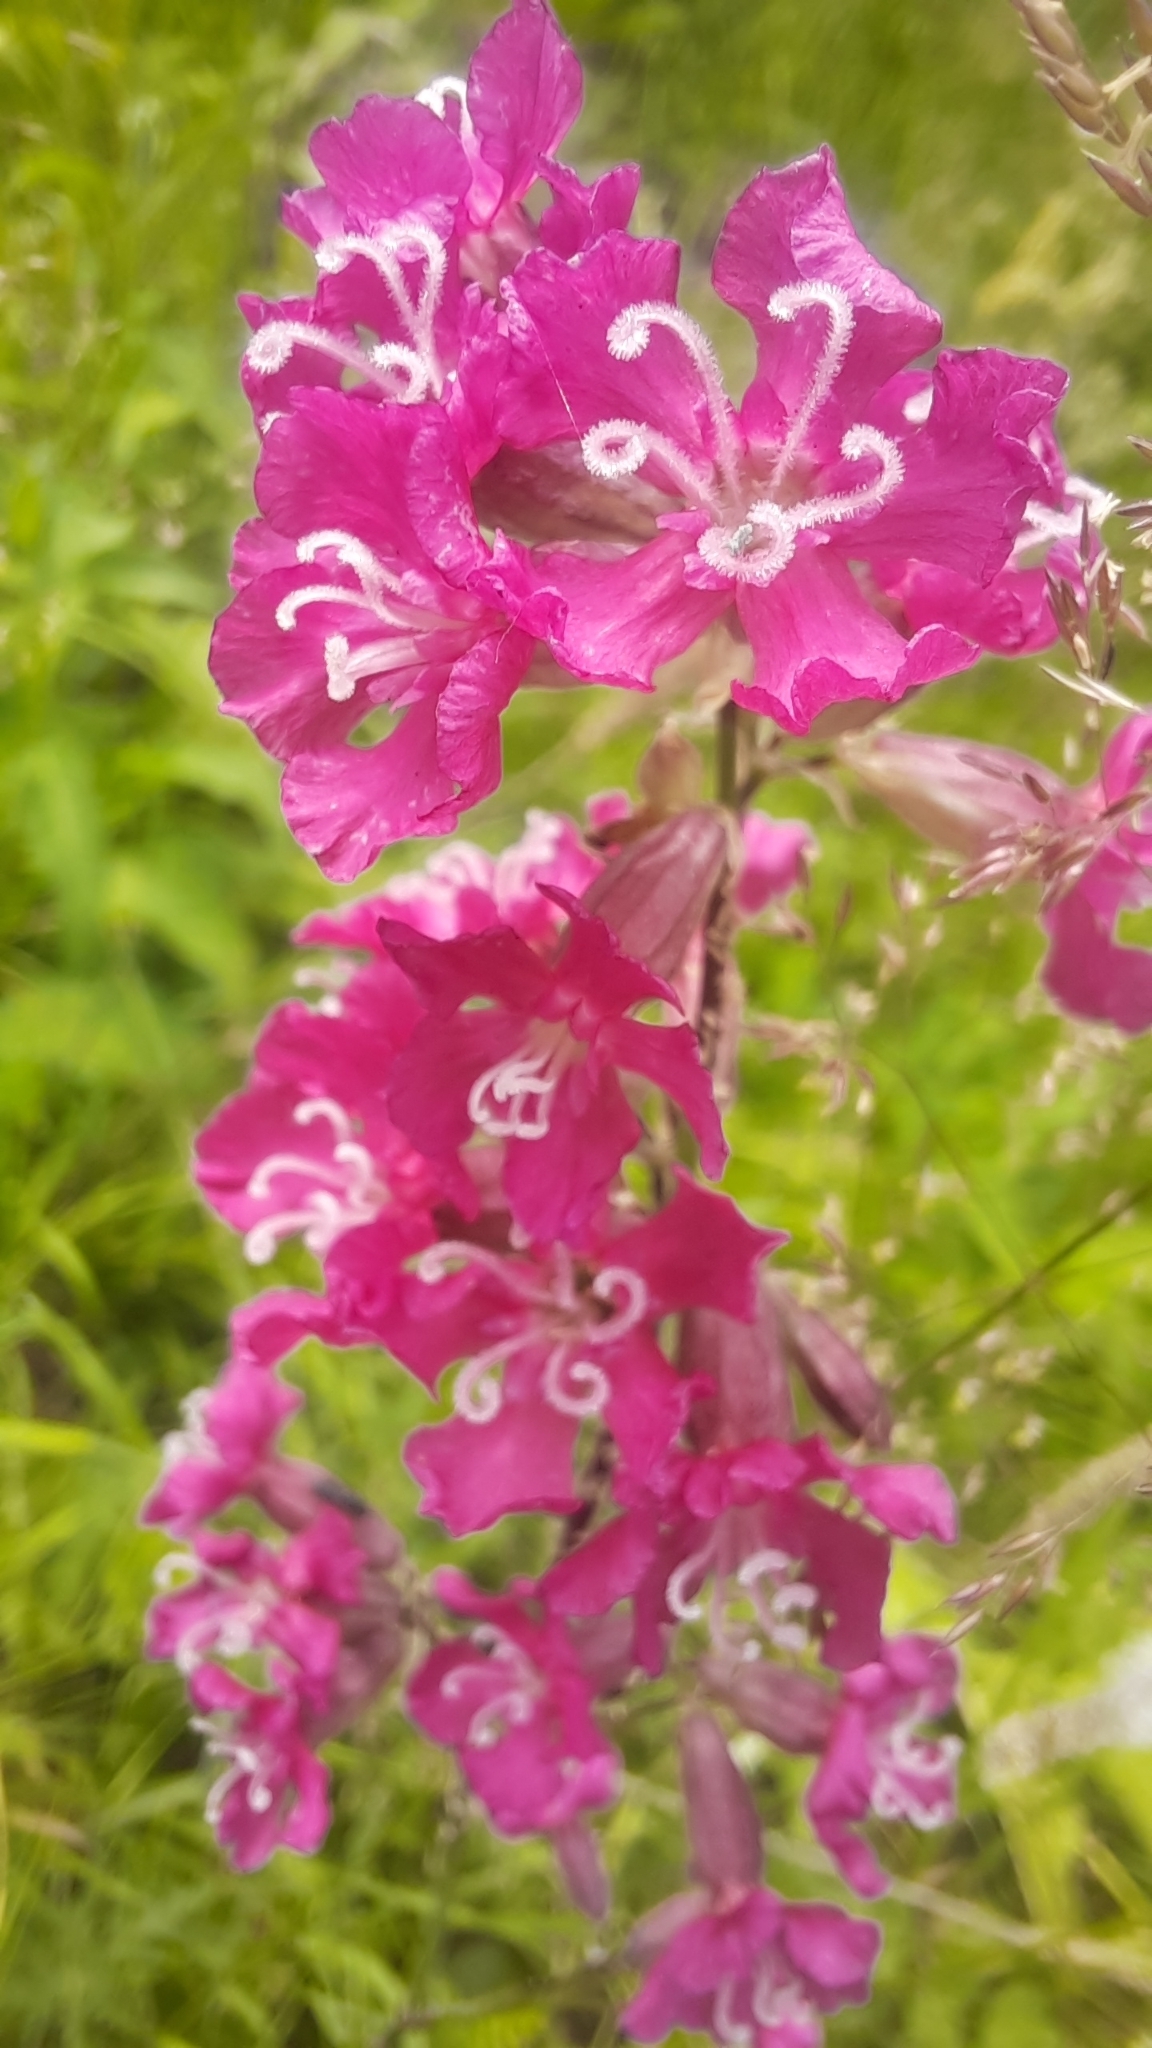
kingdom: Plantae
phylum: Tracheophyta
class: Magnoliopsida
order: Caryophyllales
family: Caryophyllaceae
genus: Viscaria
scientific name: Viscaria vulgaris
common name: Clammy campion
